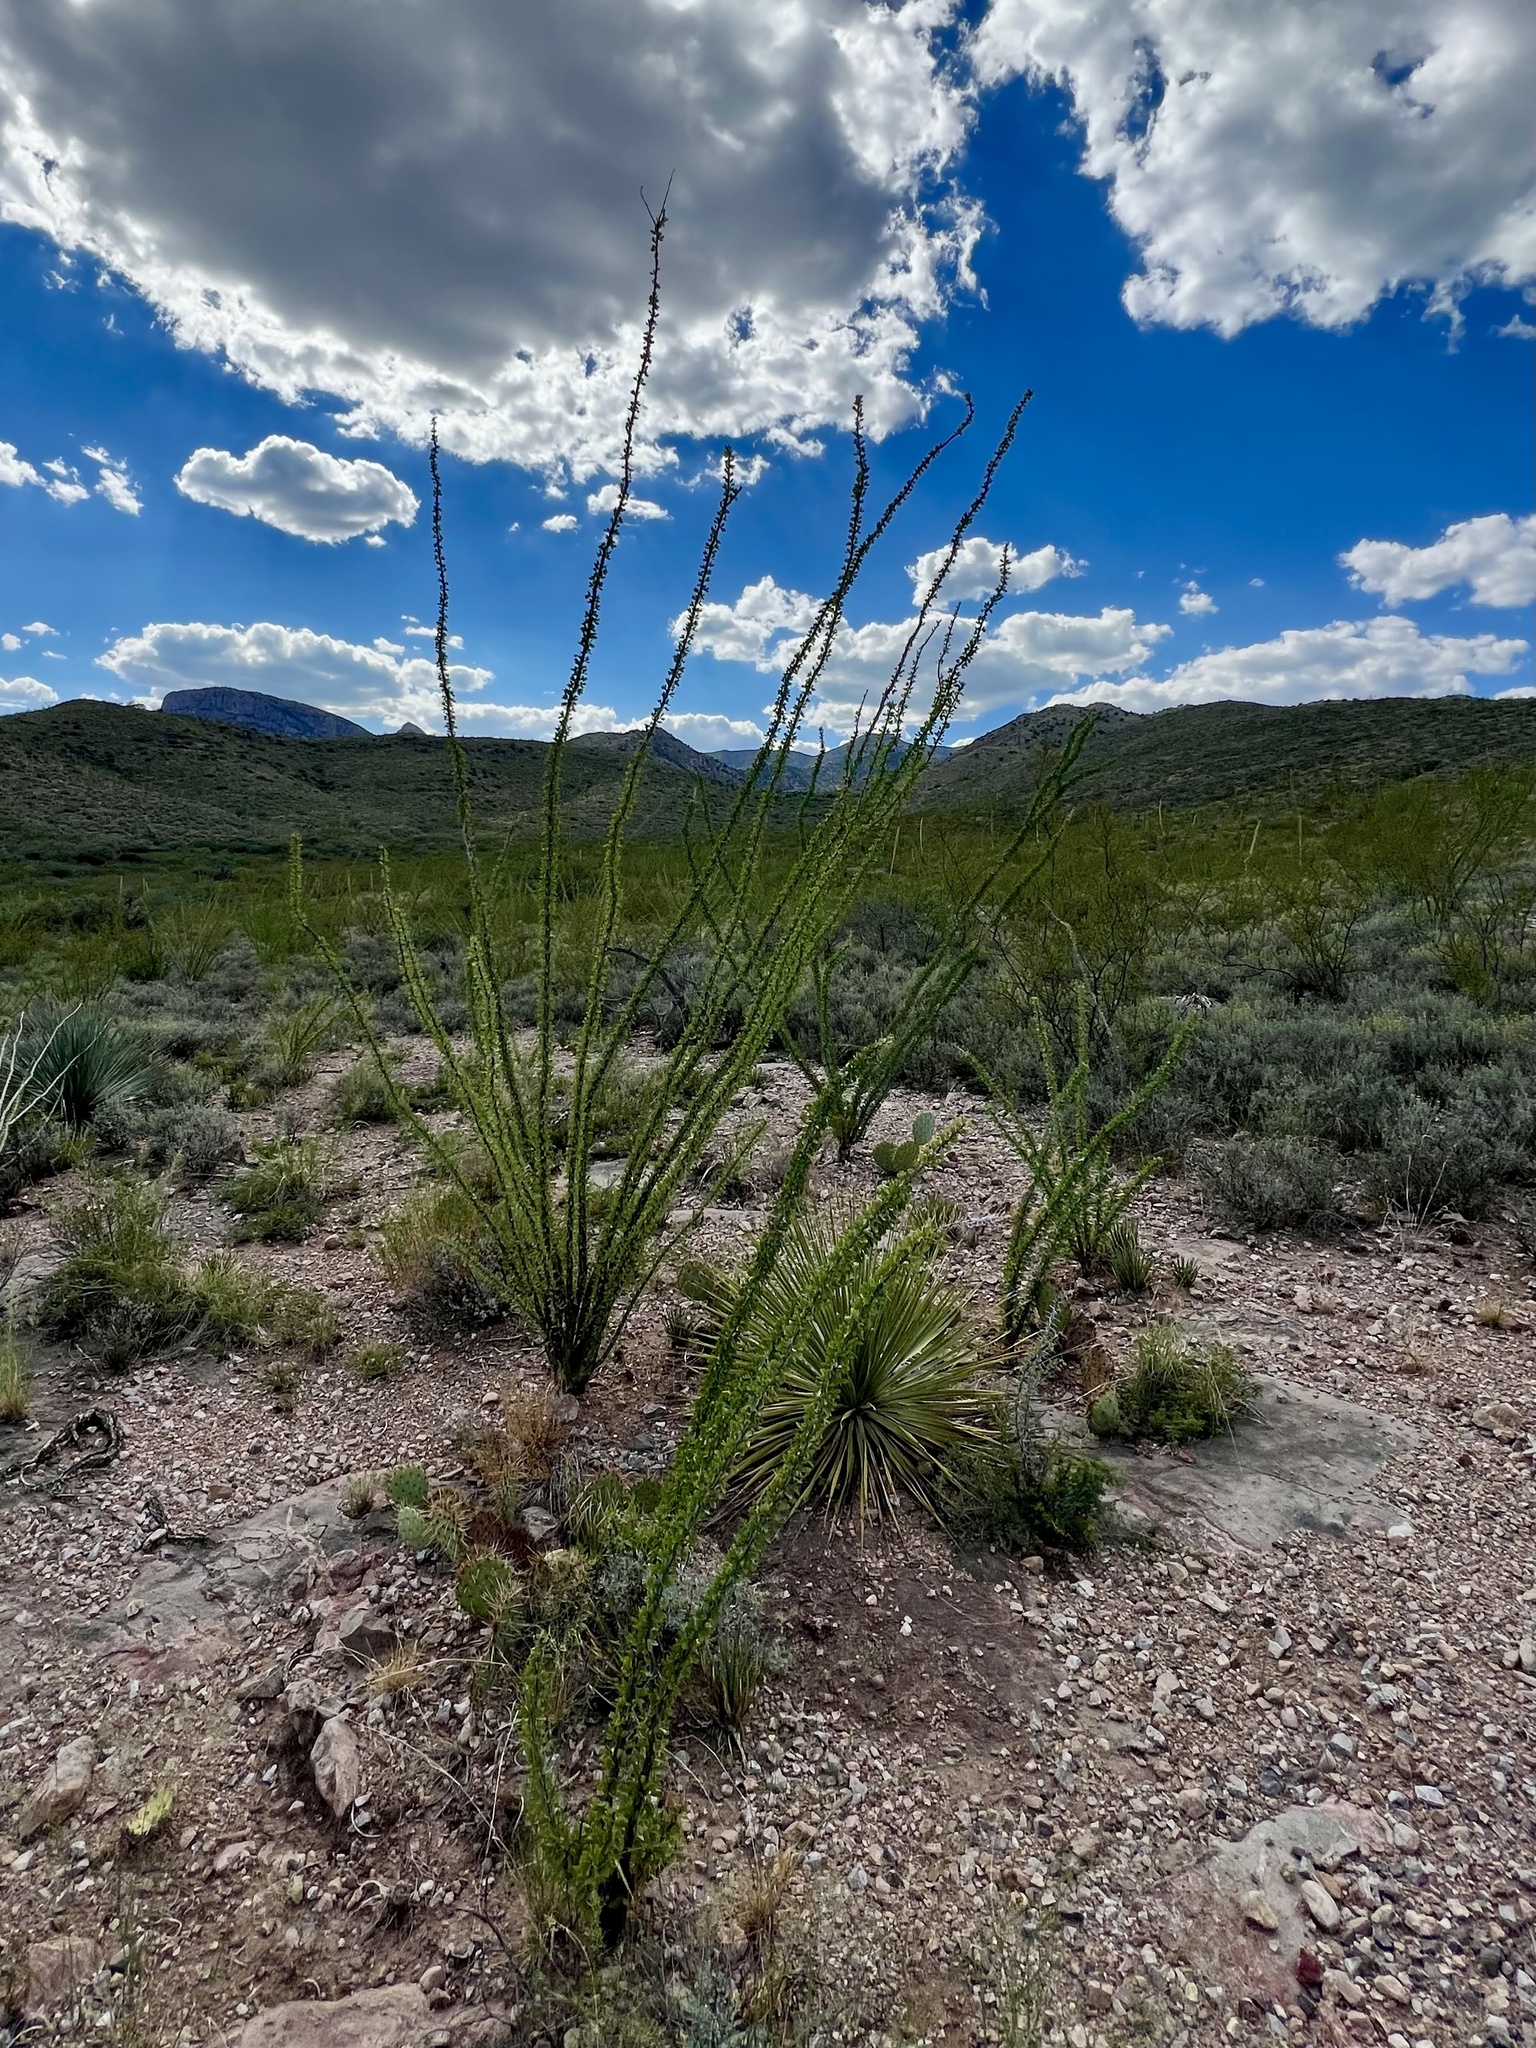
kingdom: Plantae
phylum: Tracheophyta
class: Magnoliopsida
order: Ericales
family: Fouquieriaceae
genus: Fouquieria
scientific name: Fouquieria splendens
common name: Vine-cactus
